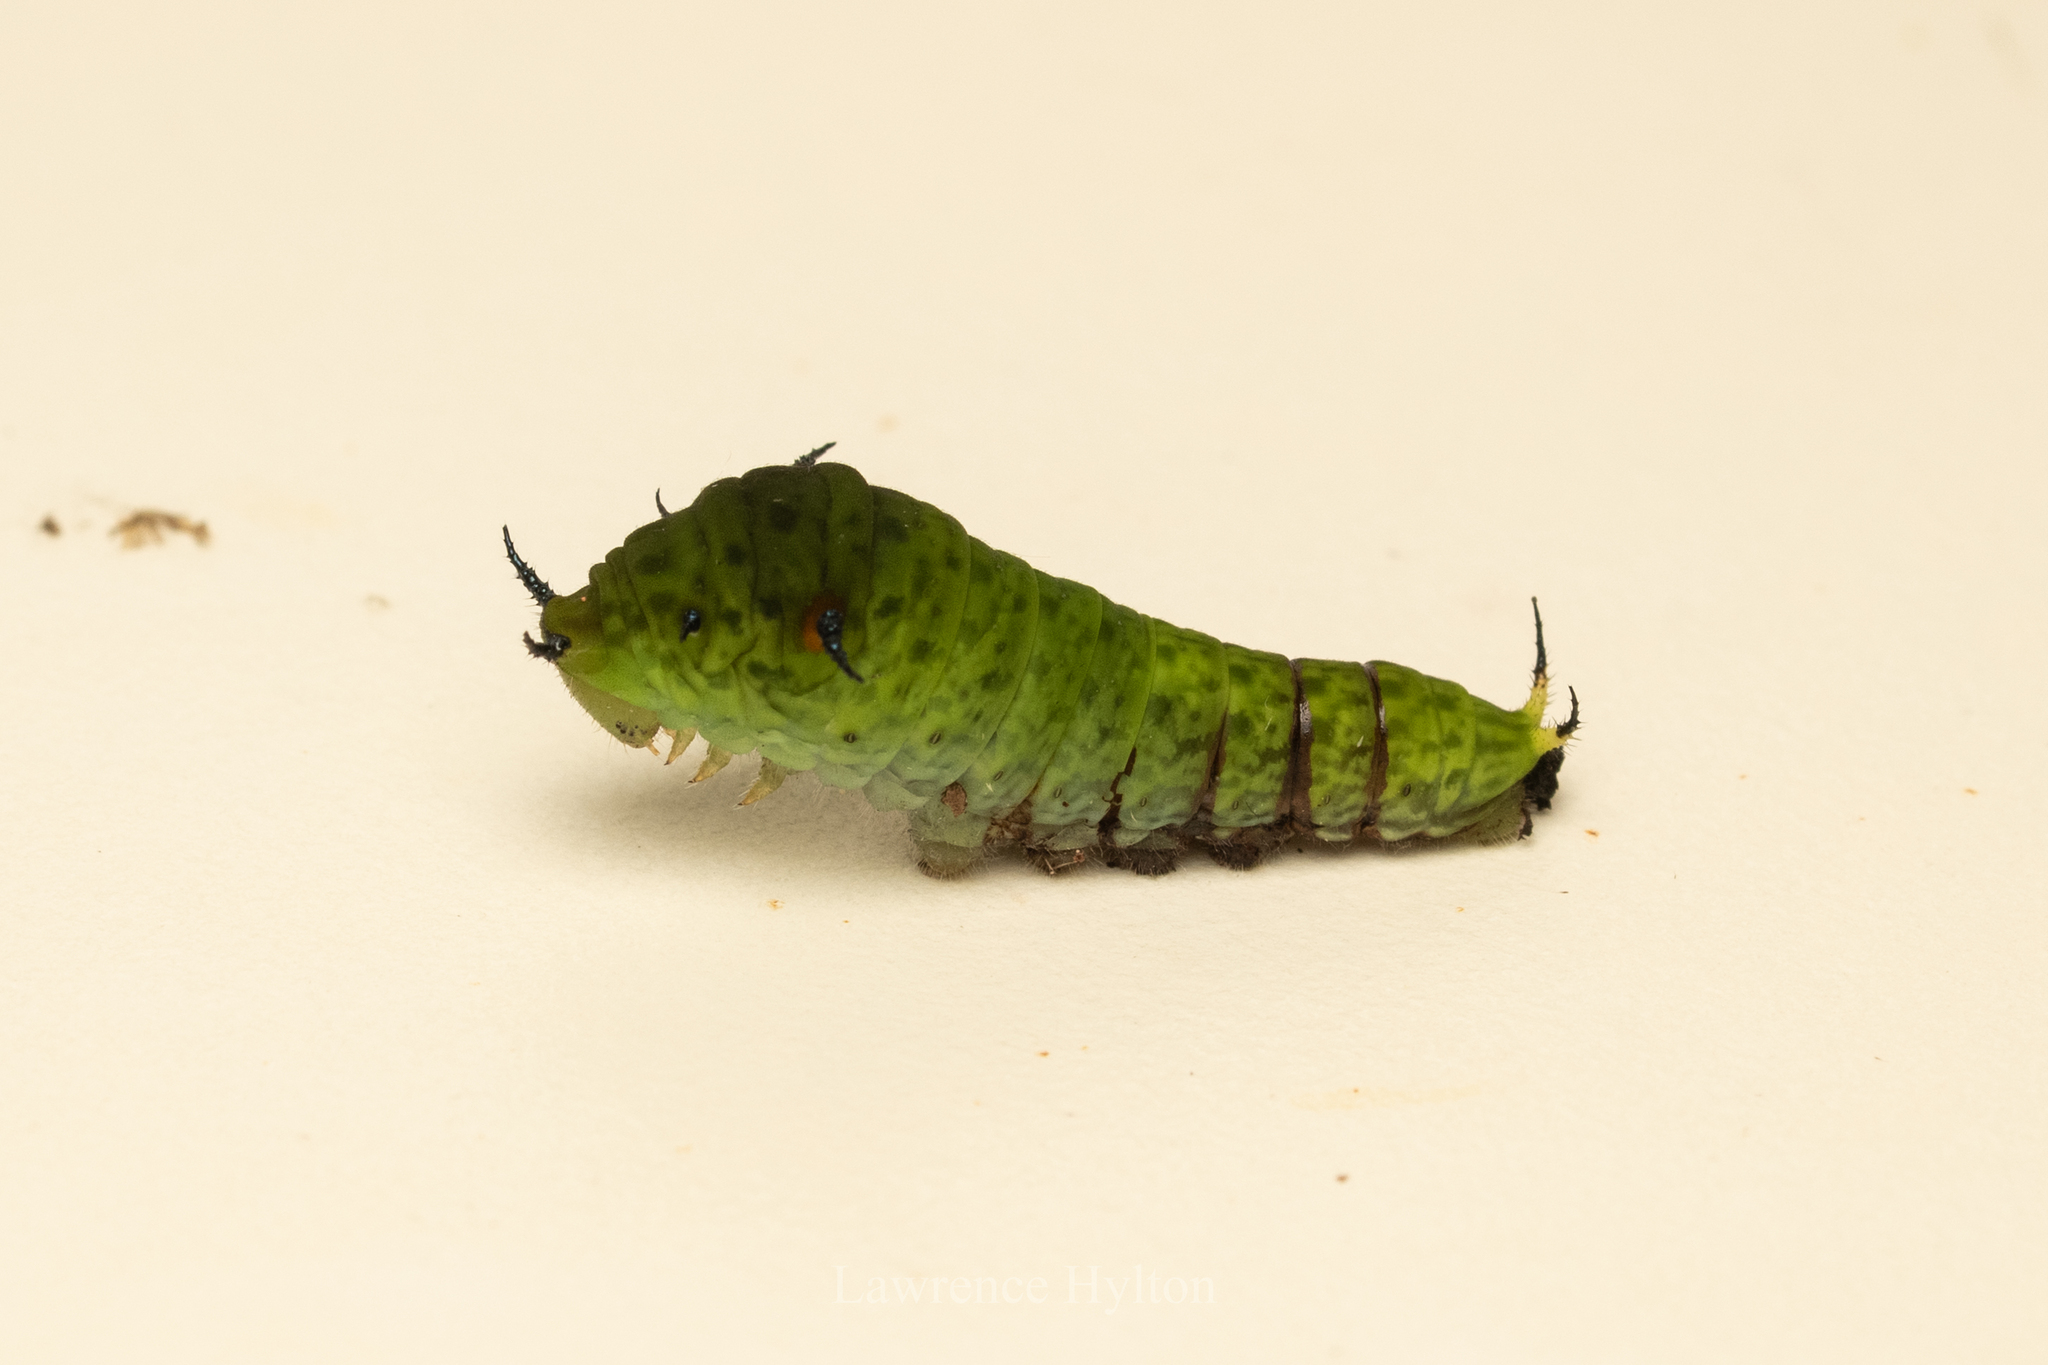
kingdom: Animalia
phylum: Arthropoda
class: Insecta
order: Lepidoptera
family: Papilionidae
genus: Graphium
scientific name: Graphium agamemnon
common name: Tailed jay
